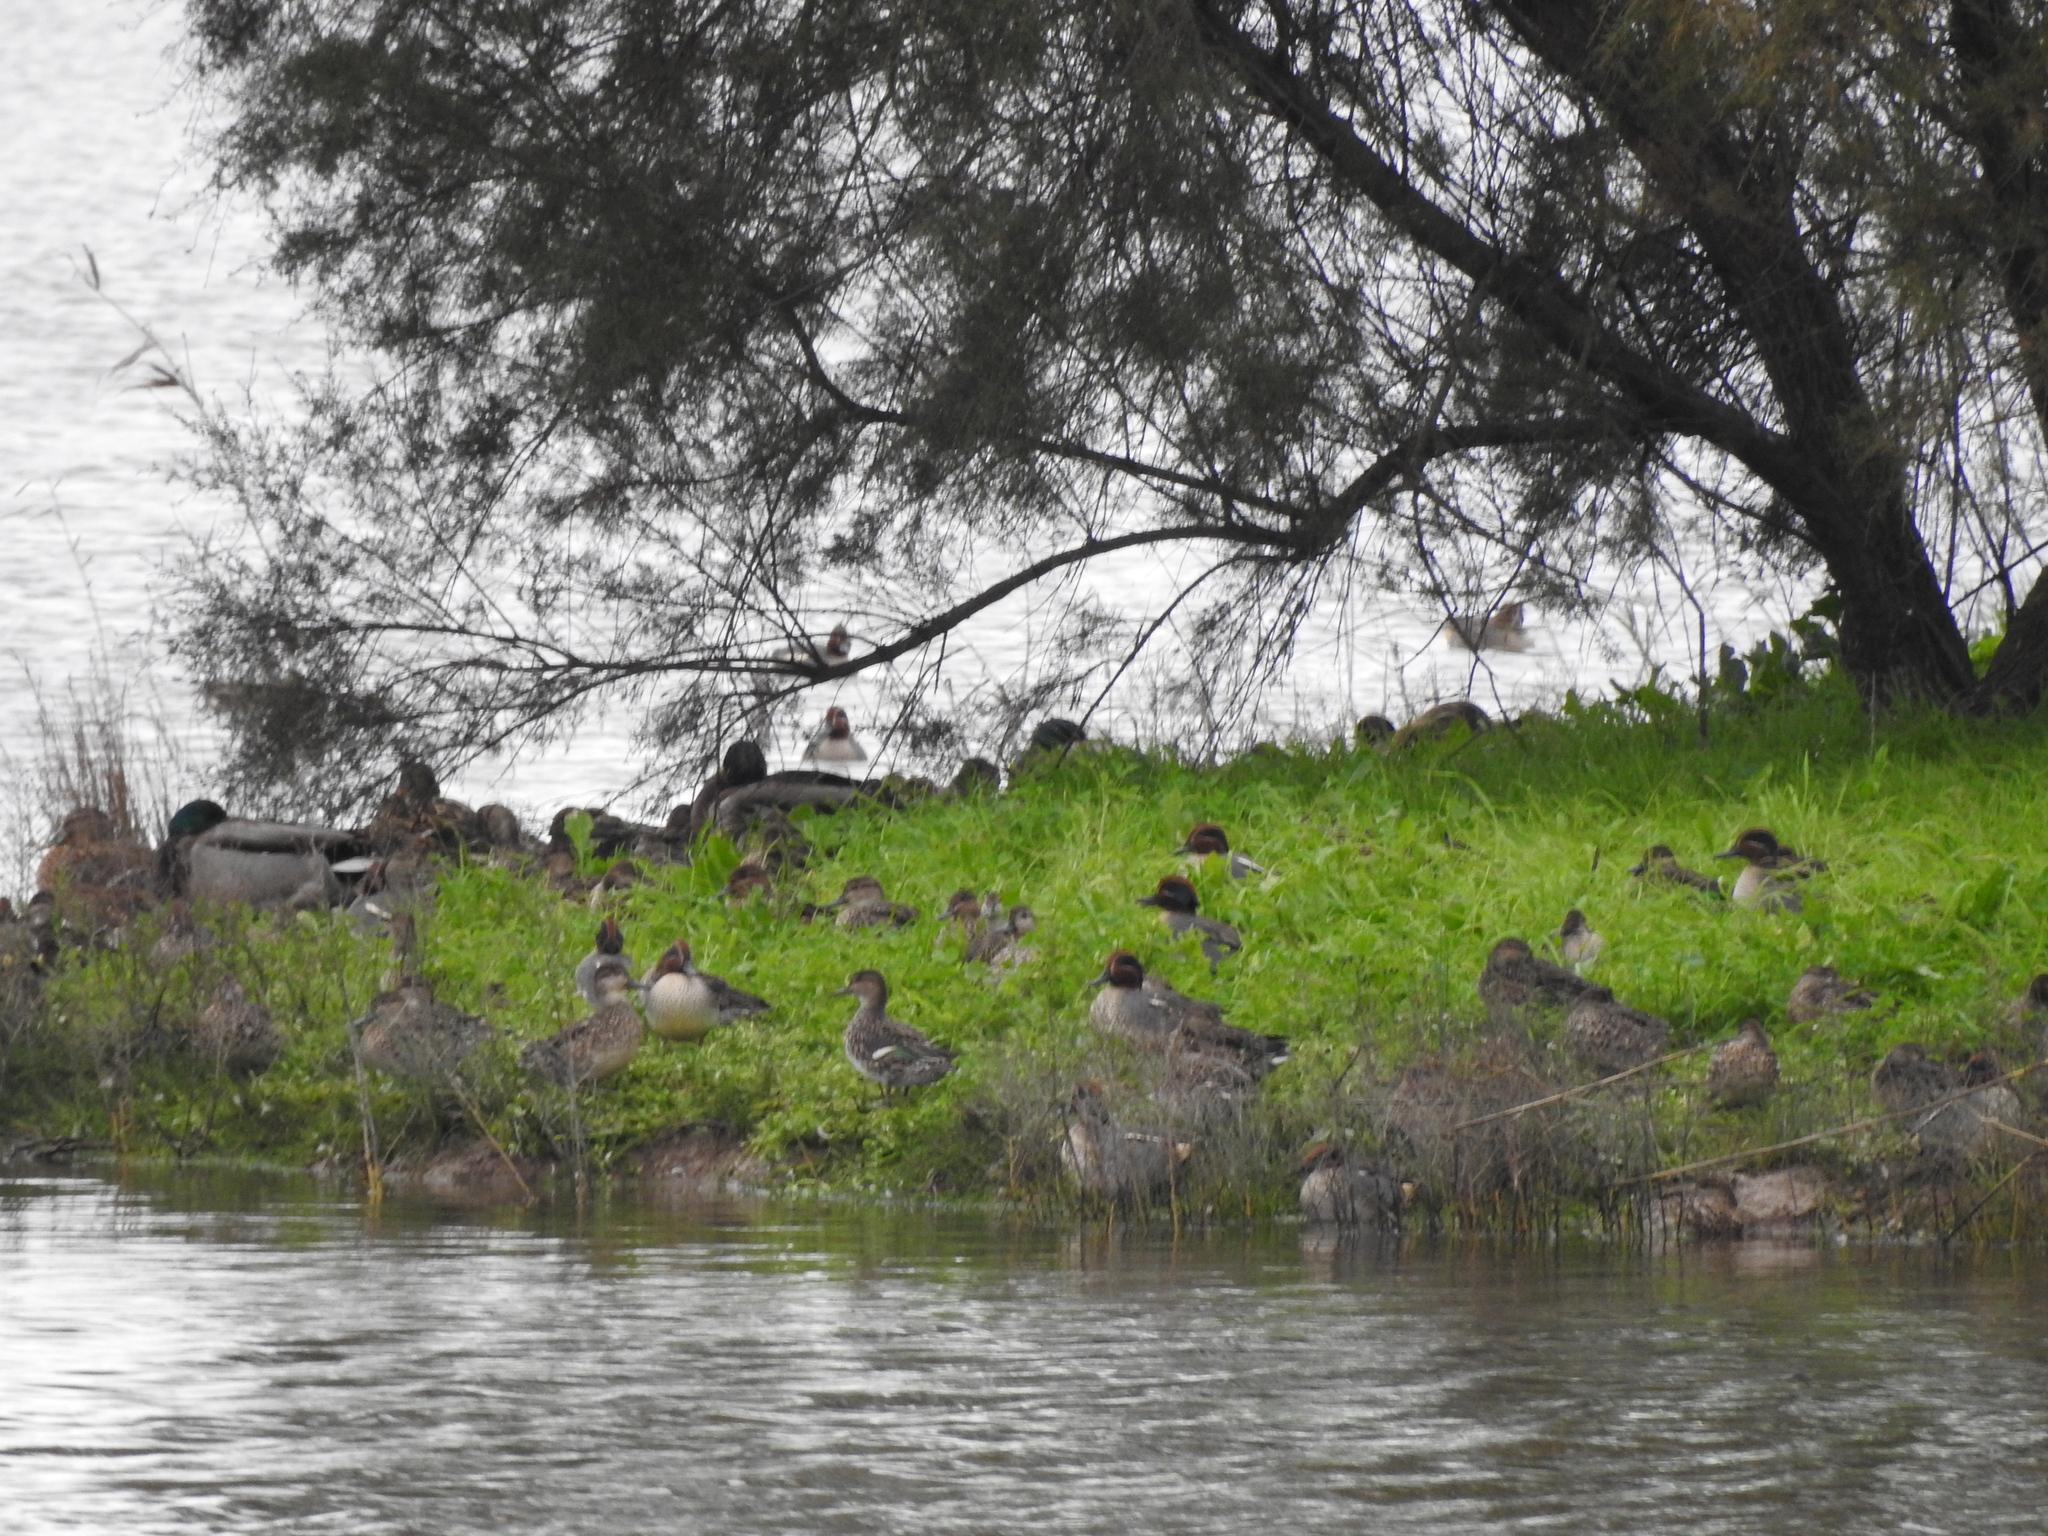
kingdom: Animalia
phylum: Chordata
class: Aves
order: Anseriformes
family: Anatidae
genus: Anas
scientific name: Anas crecca
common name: Eurasian teal
